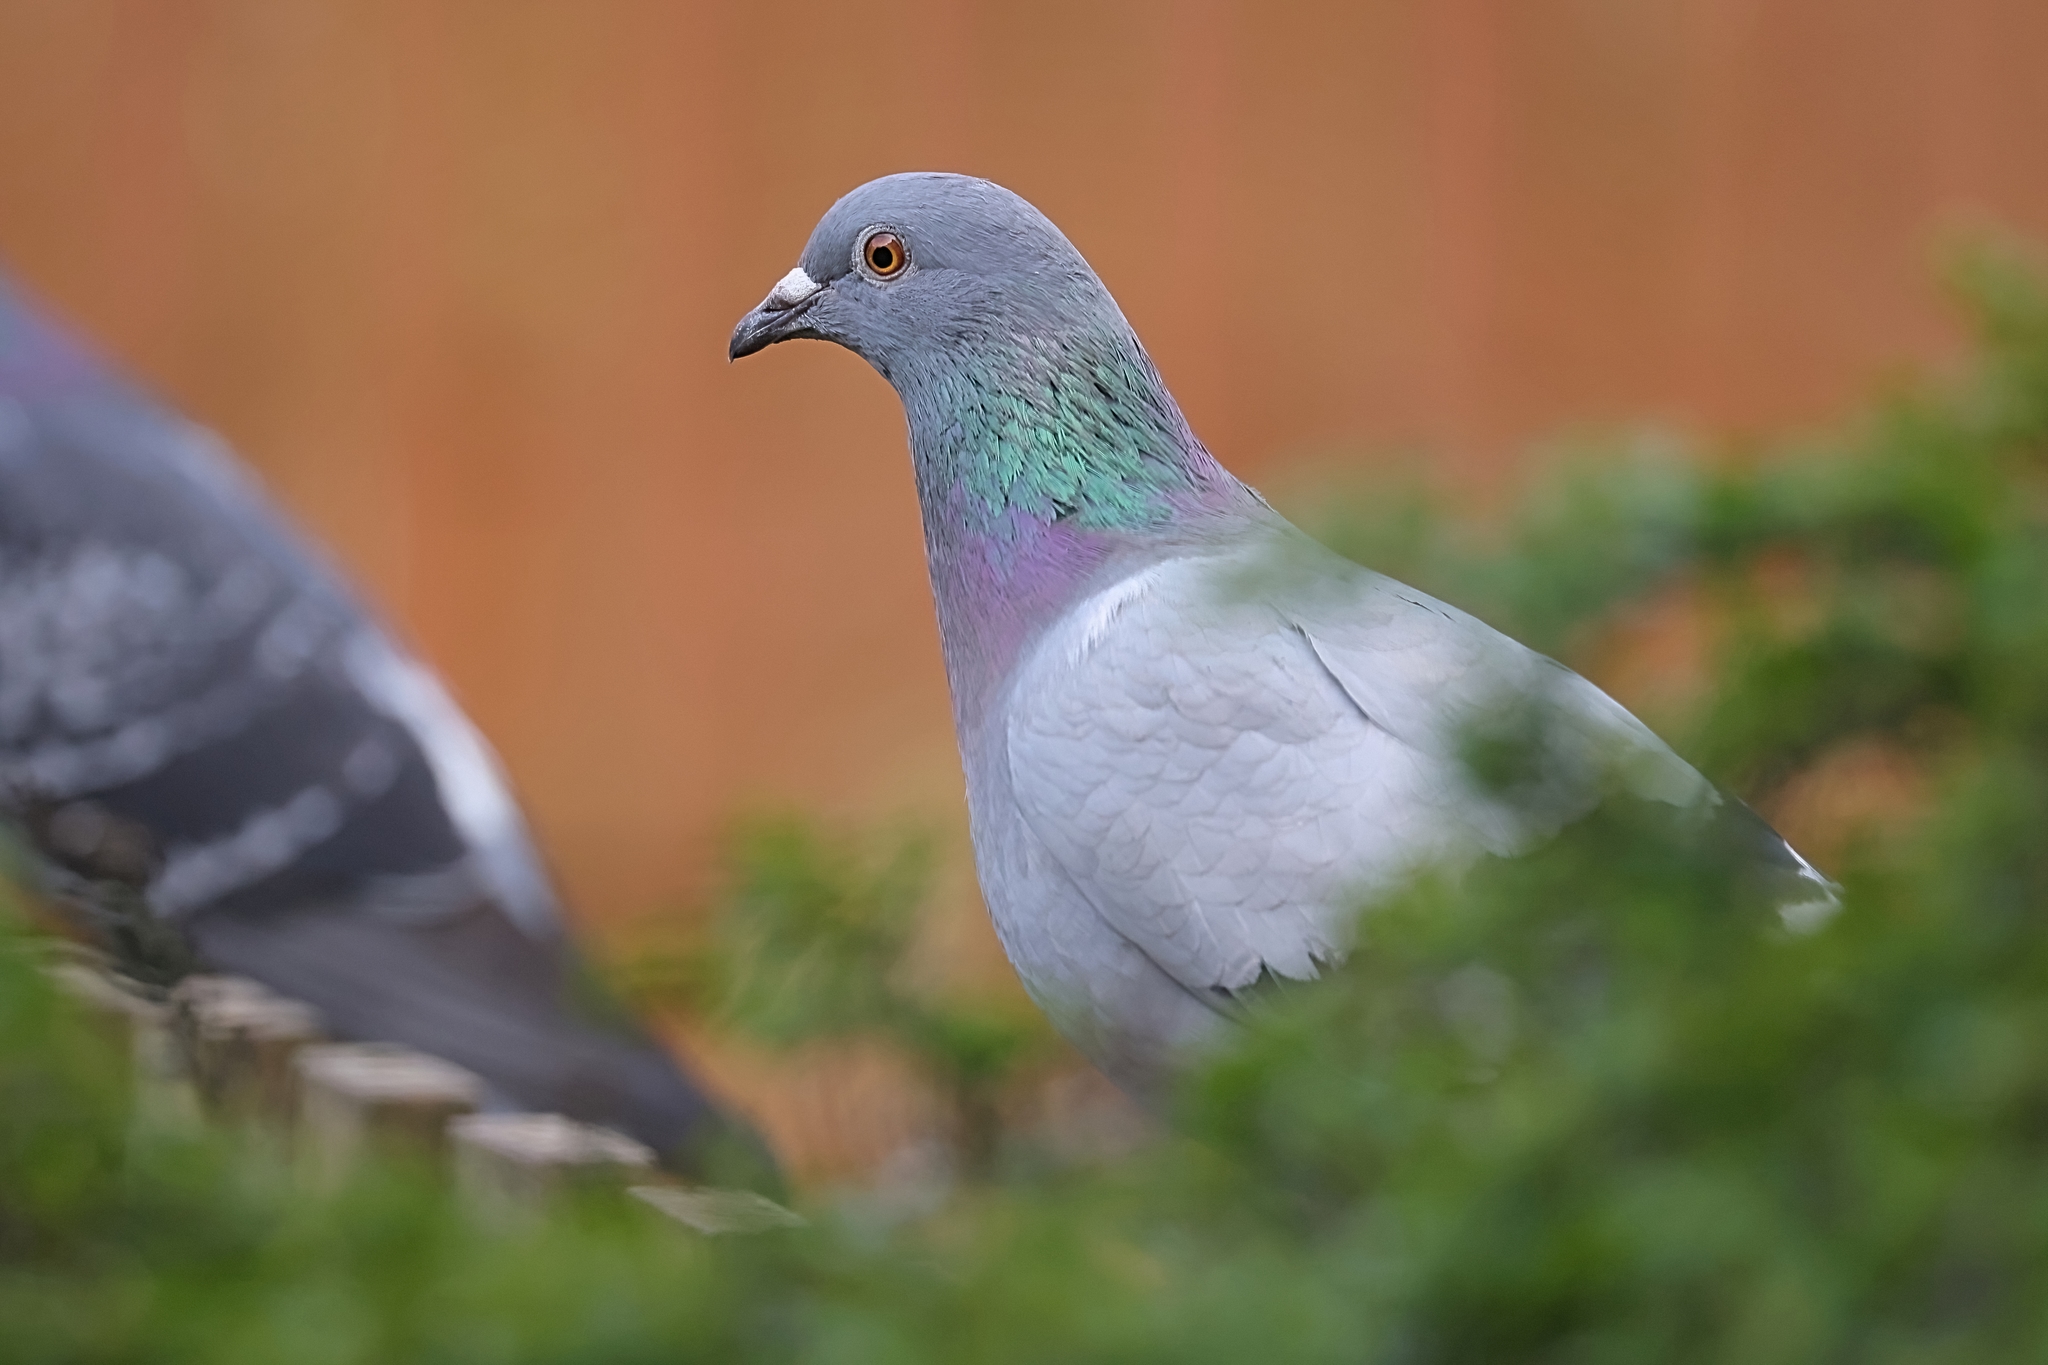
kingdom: Animalia
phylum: Chordata
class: Aves
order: Columbiformes
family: Columbidae
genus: Columba
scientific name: Columba livia
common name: Rock pigeon
